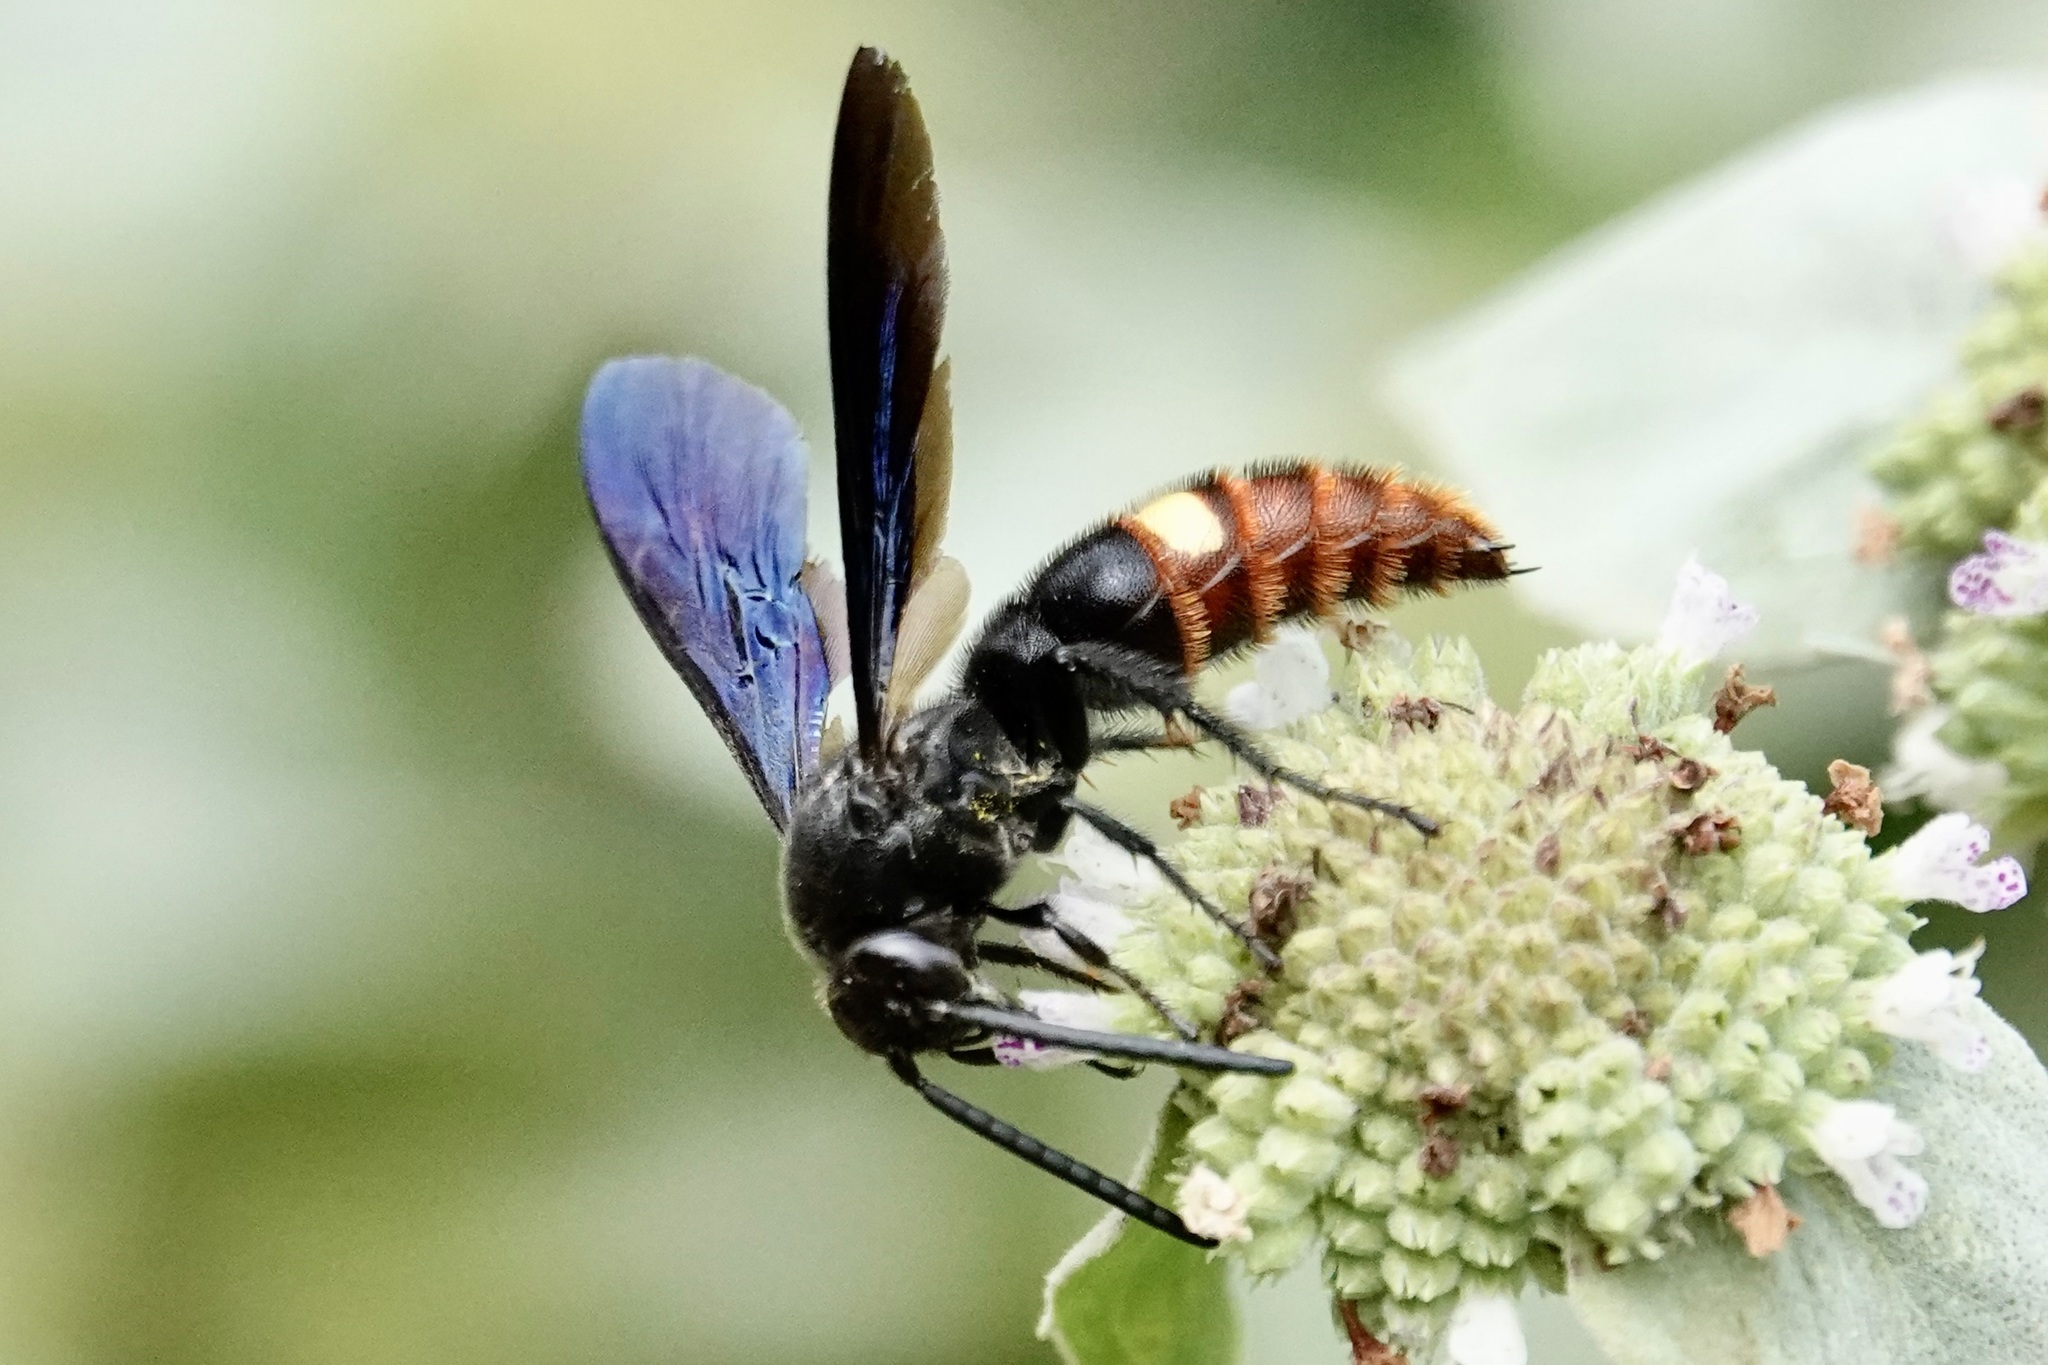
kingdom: Animalia
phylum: Arthropoda
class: Insecta
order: Hymenoptera
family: Scoliidae
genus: Scolia
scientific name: Scolia dubia
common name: Blue-winged scoliid wasp
